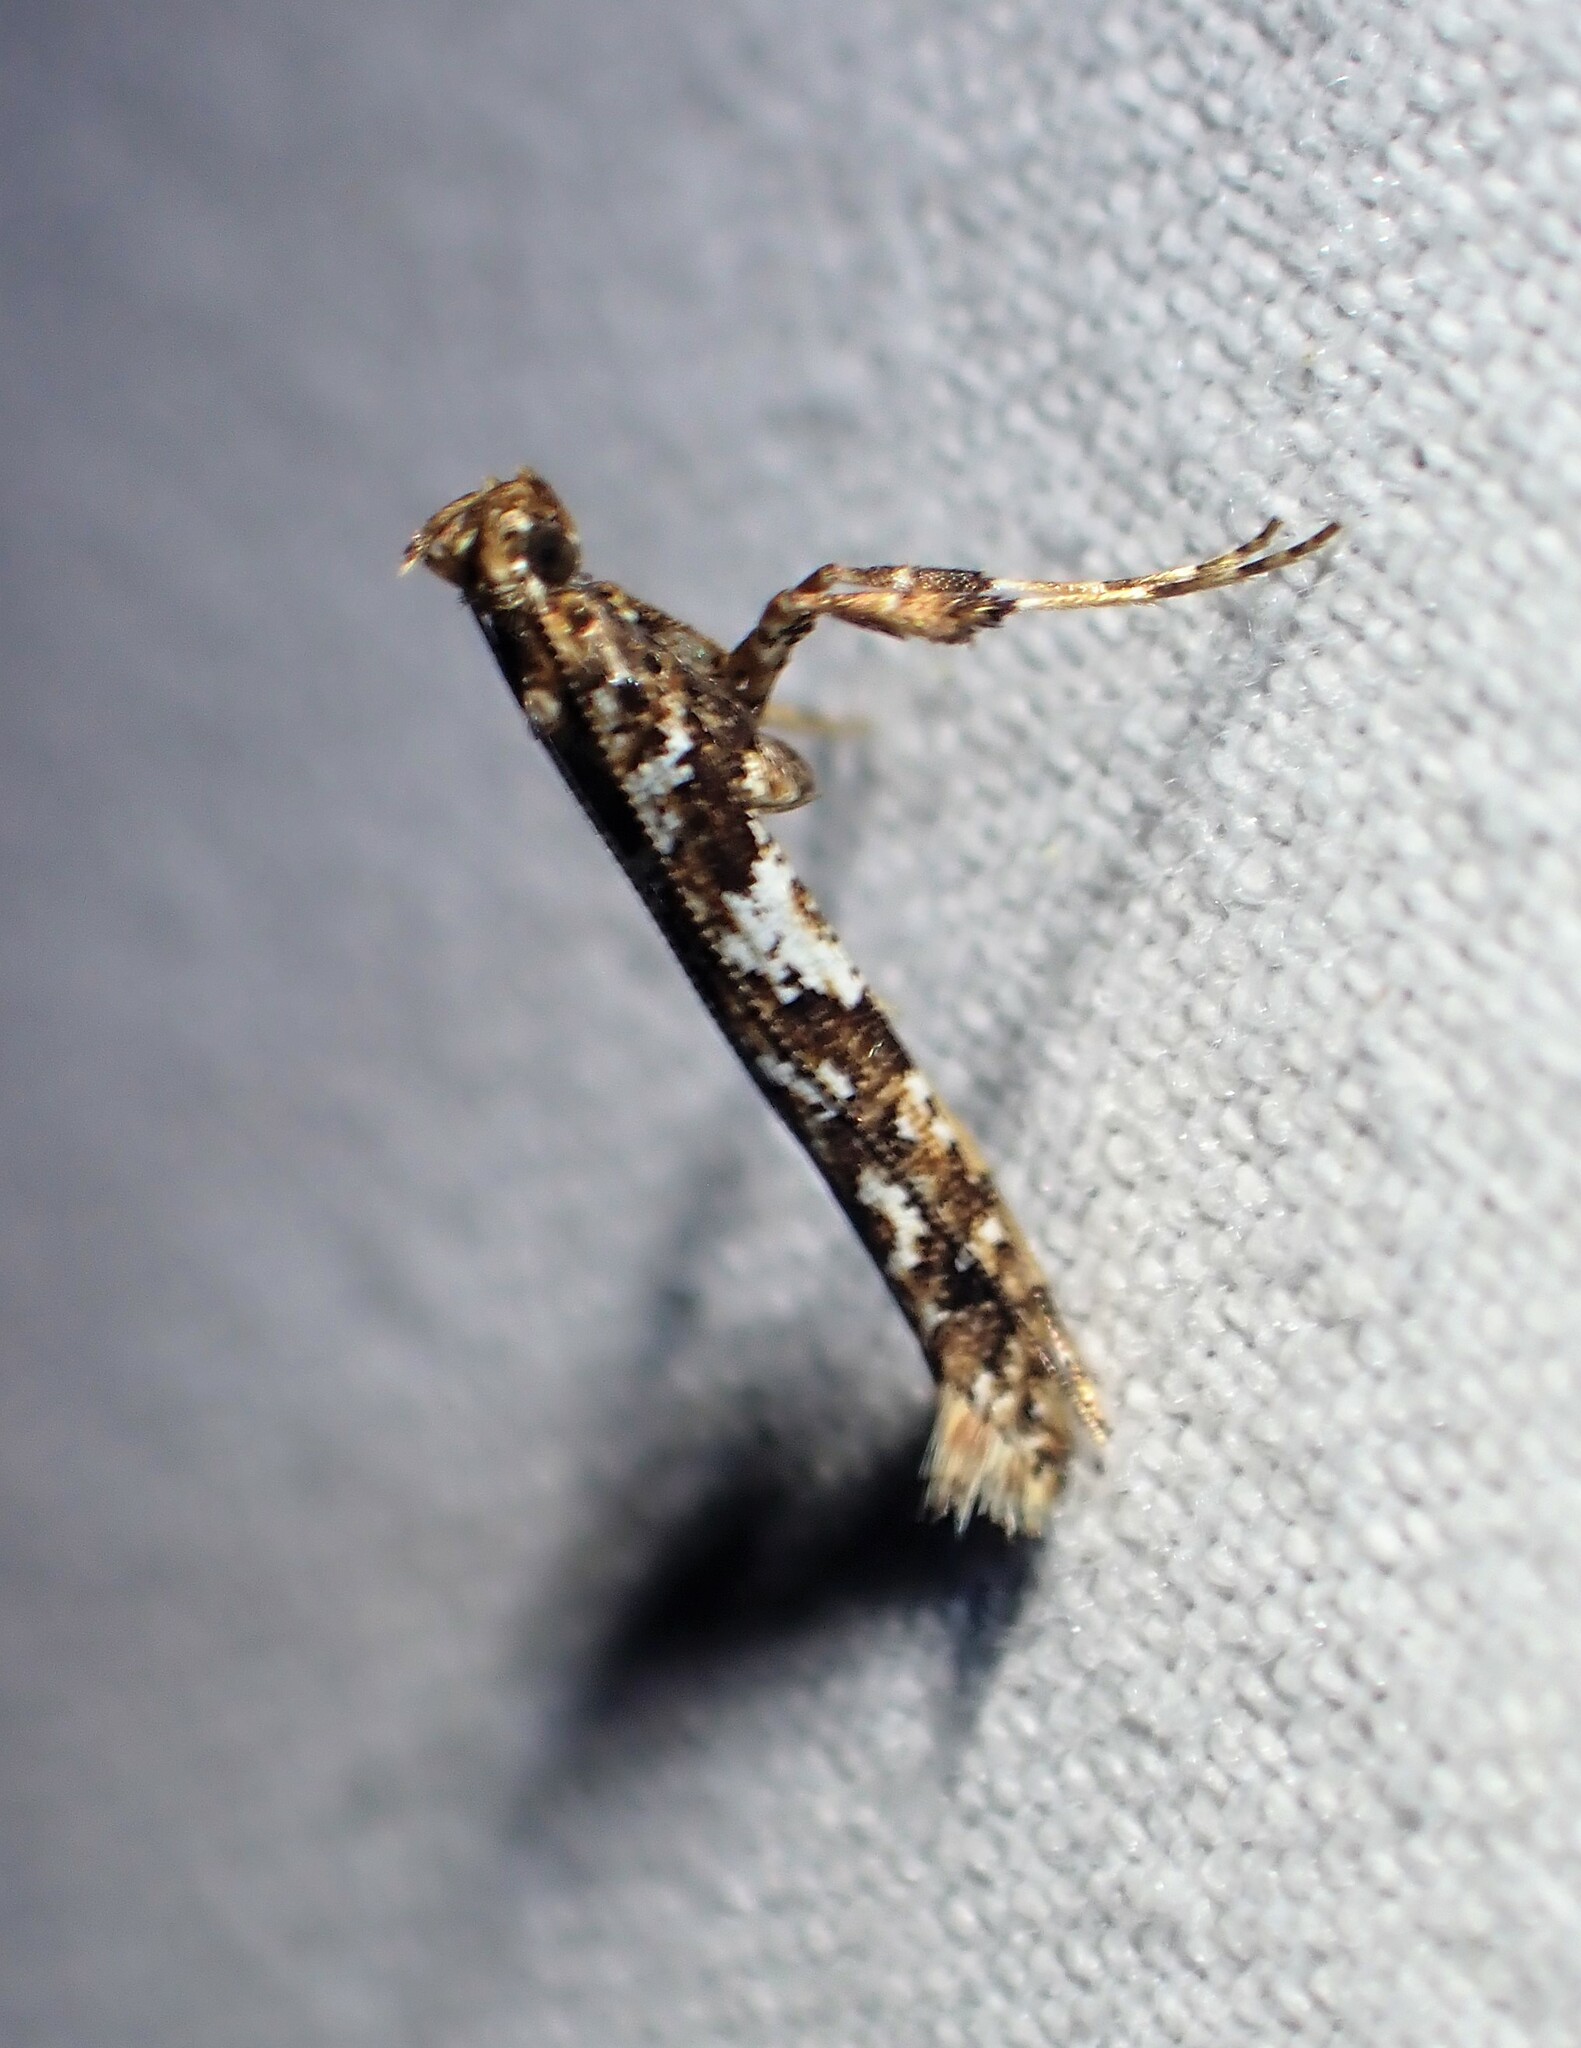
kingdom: Animalia
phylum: Arthropoda
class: Insecta
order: Lepidoptera
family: Gracillariidae
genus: Caloptilia
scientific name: Caloptilia serotinella
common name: Cherry leafroller moth
